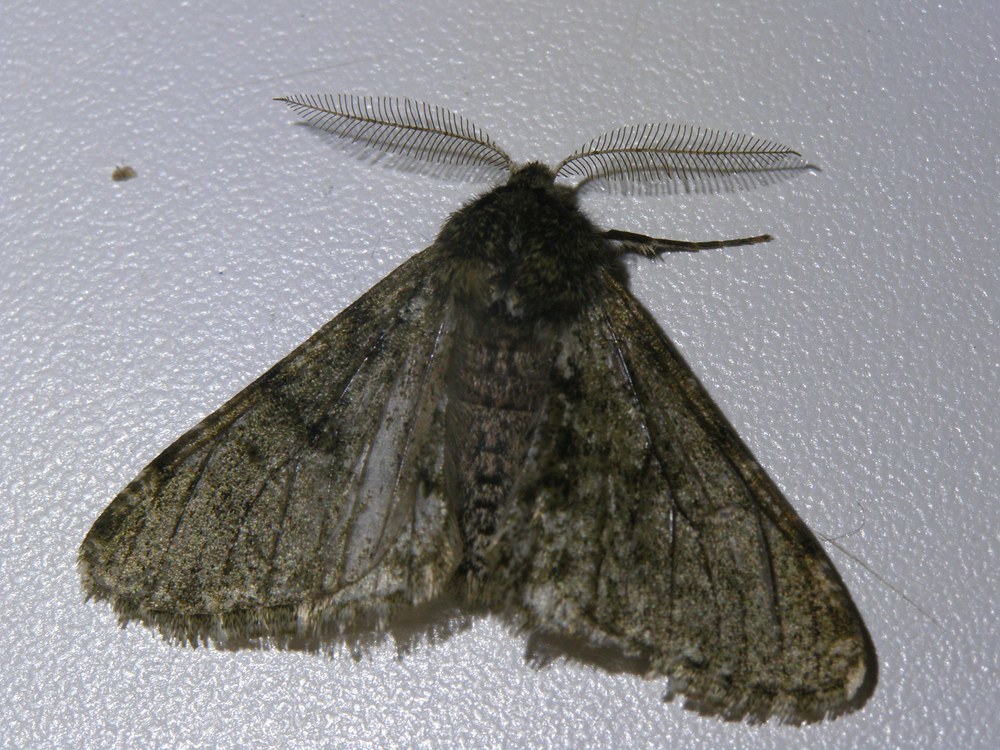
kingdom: Animalia
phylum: Arthropoda
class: Insecta
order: Lepidoptera
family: Geometridae
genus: Phigalia
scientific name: Phigalia pilosaria
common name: Pale brindled beauty
